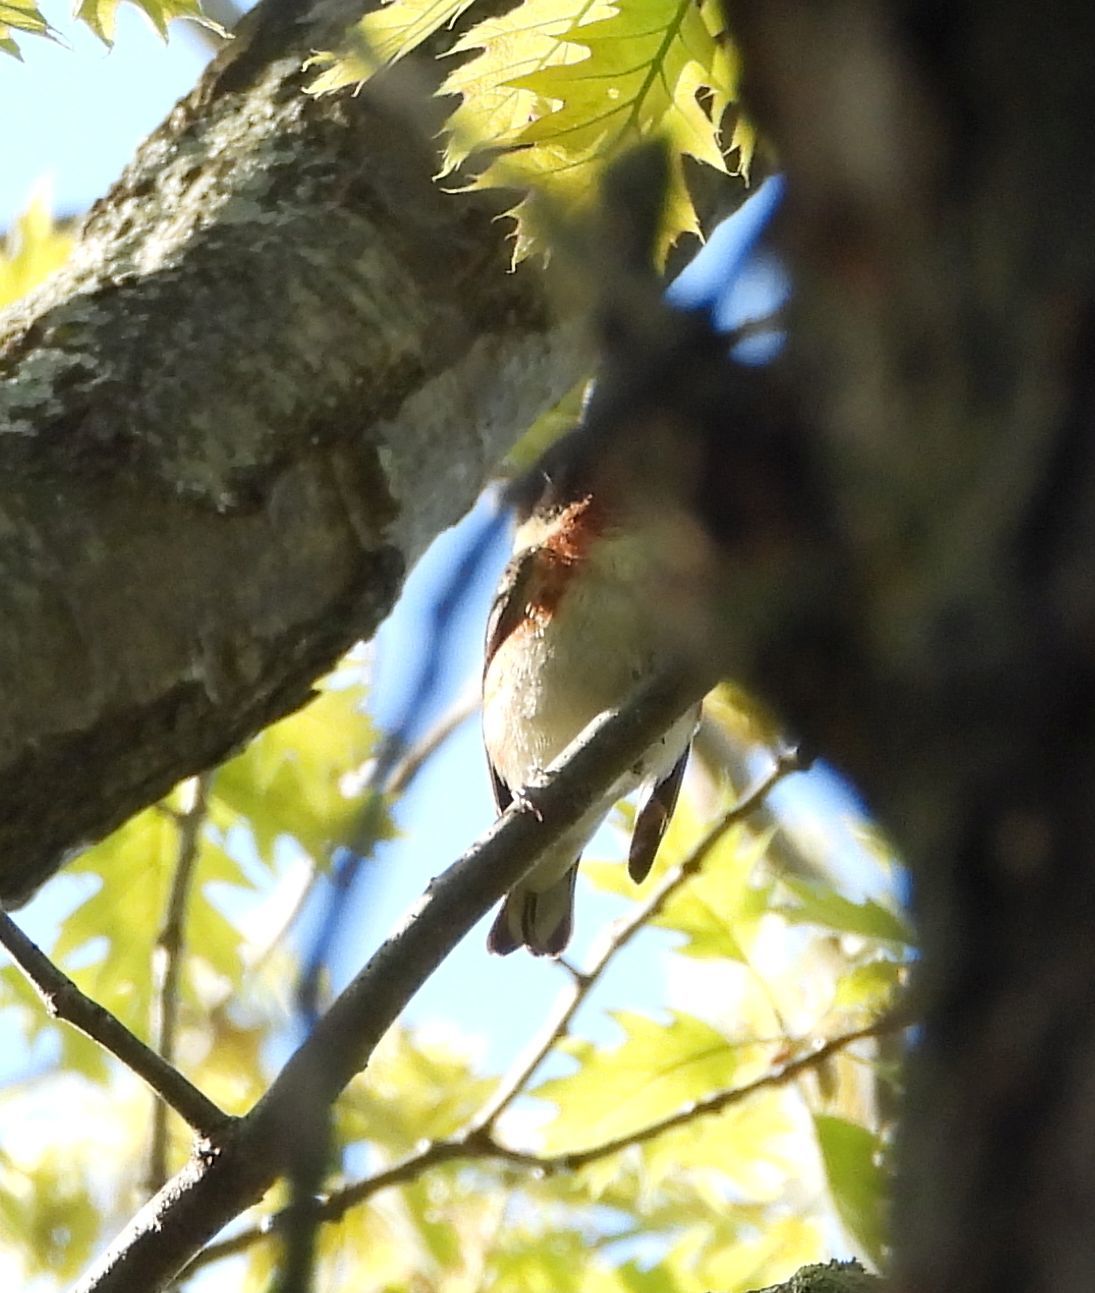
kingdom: Animalia
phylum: Chordata
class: Aves
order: Passeriformes
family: Parulidae
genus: Setophaga
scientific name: Setophaga castanea
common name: Bay-breasted warbler
